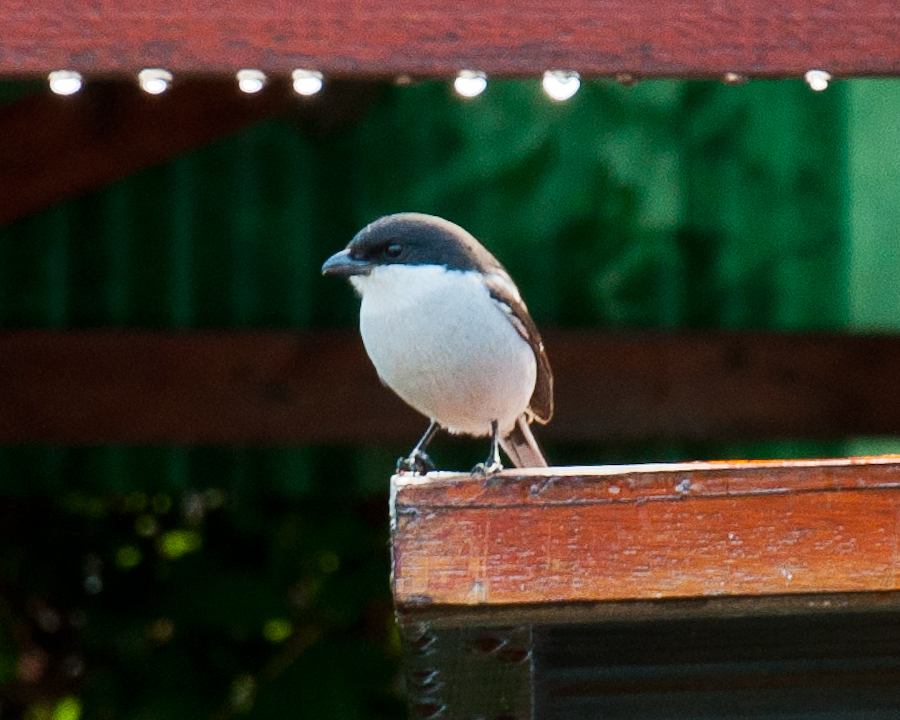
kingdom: Animalia
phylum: Chordata
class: Aves
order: Passeriformes
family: Laniidae
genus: Lanius
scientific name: Lanius collaris
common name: Southern fiscal
